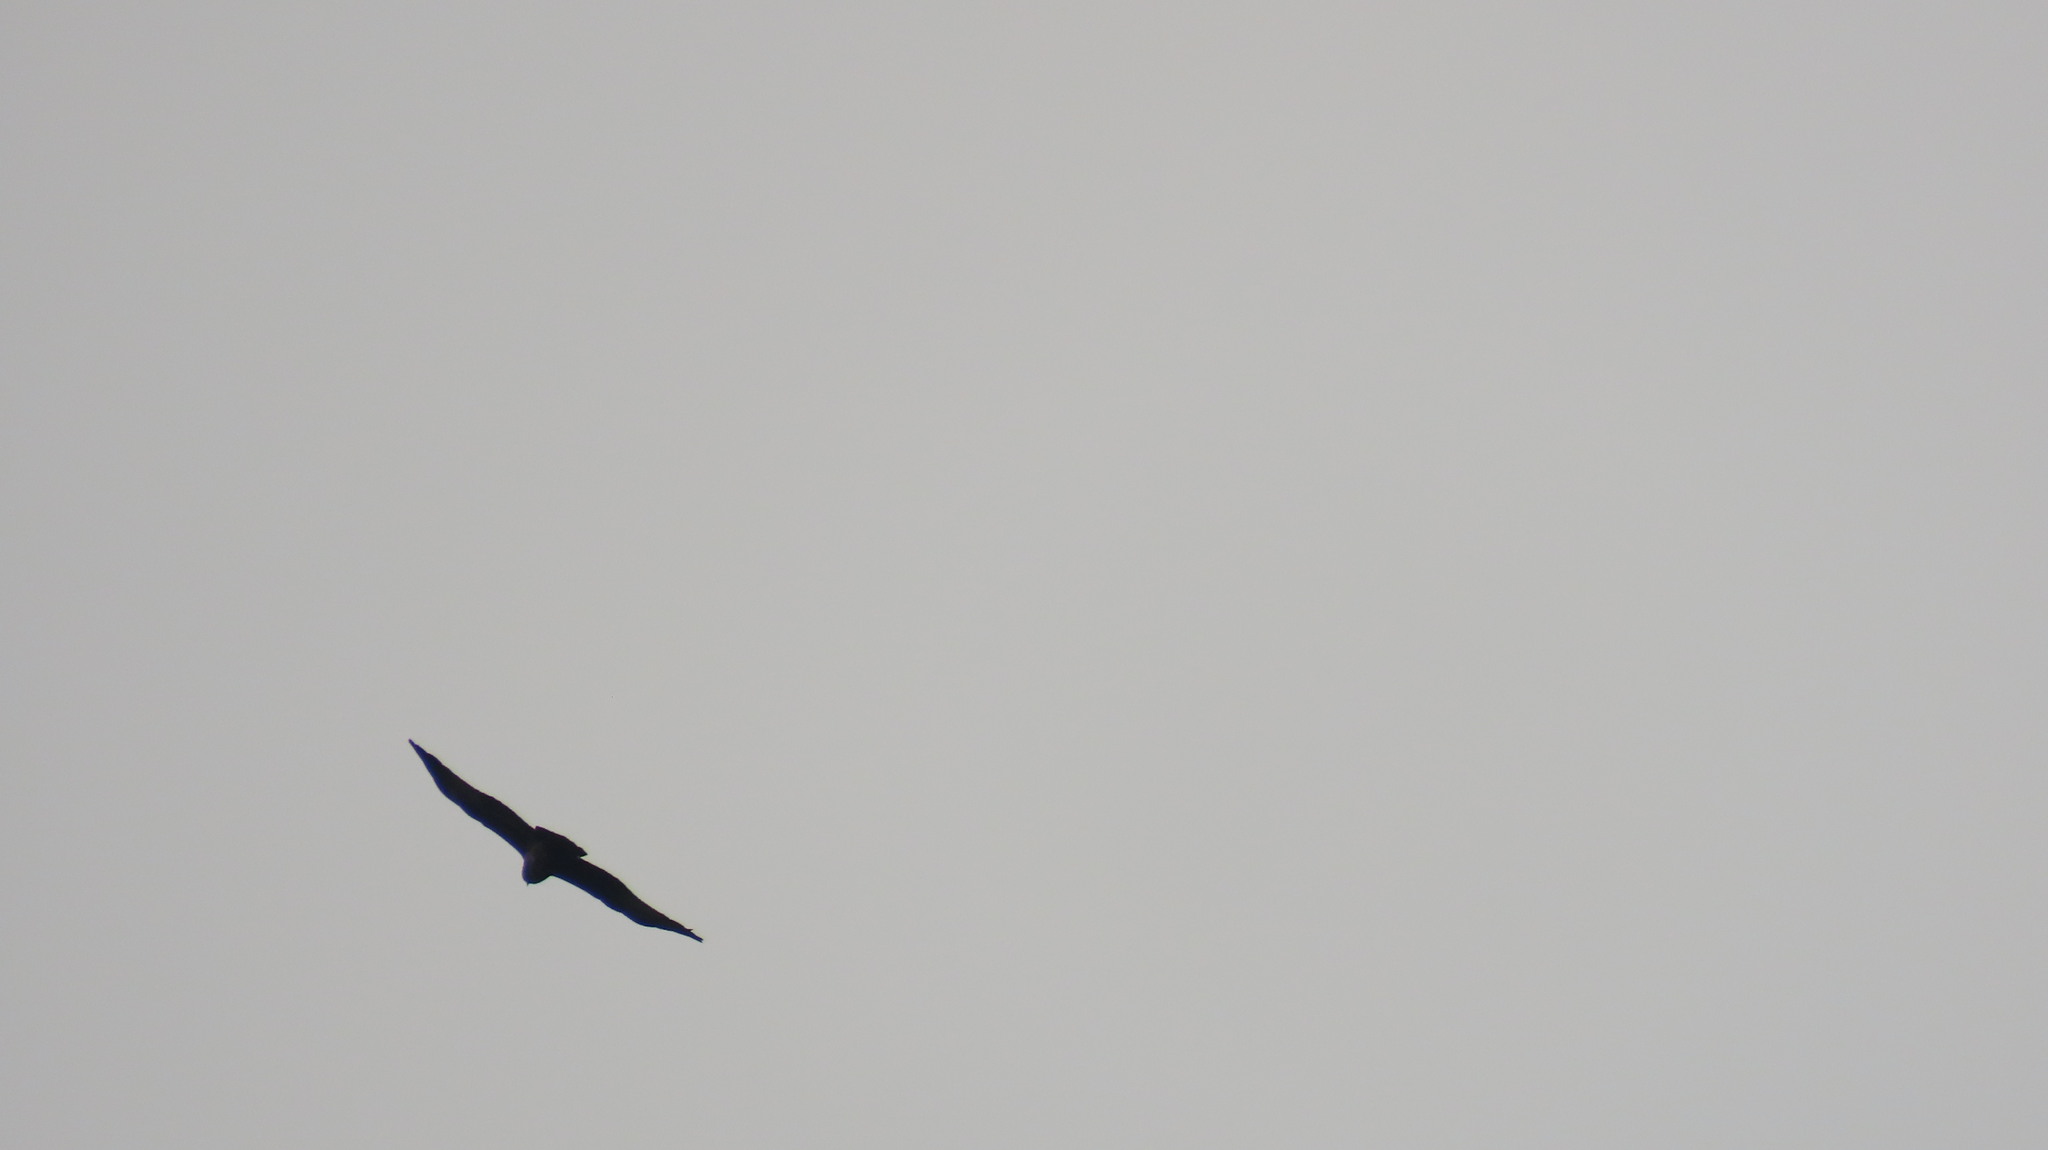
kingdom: Animalia
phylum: Chordata
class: Aves
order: Accipitriformes
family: Accipitridae
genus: Haliastur
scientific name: Haliastur indus
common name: Brahminy kite
